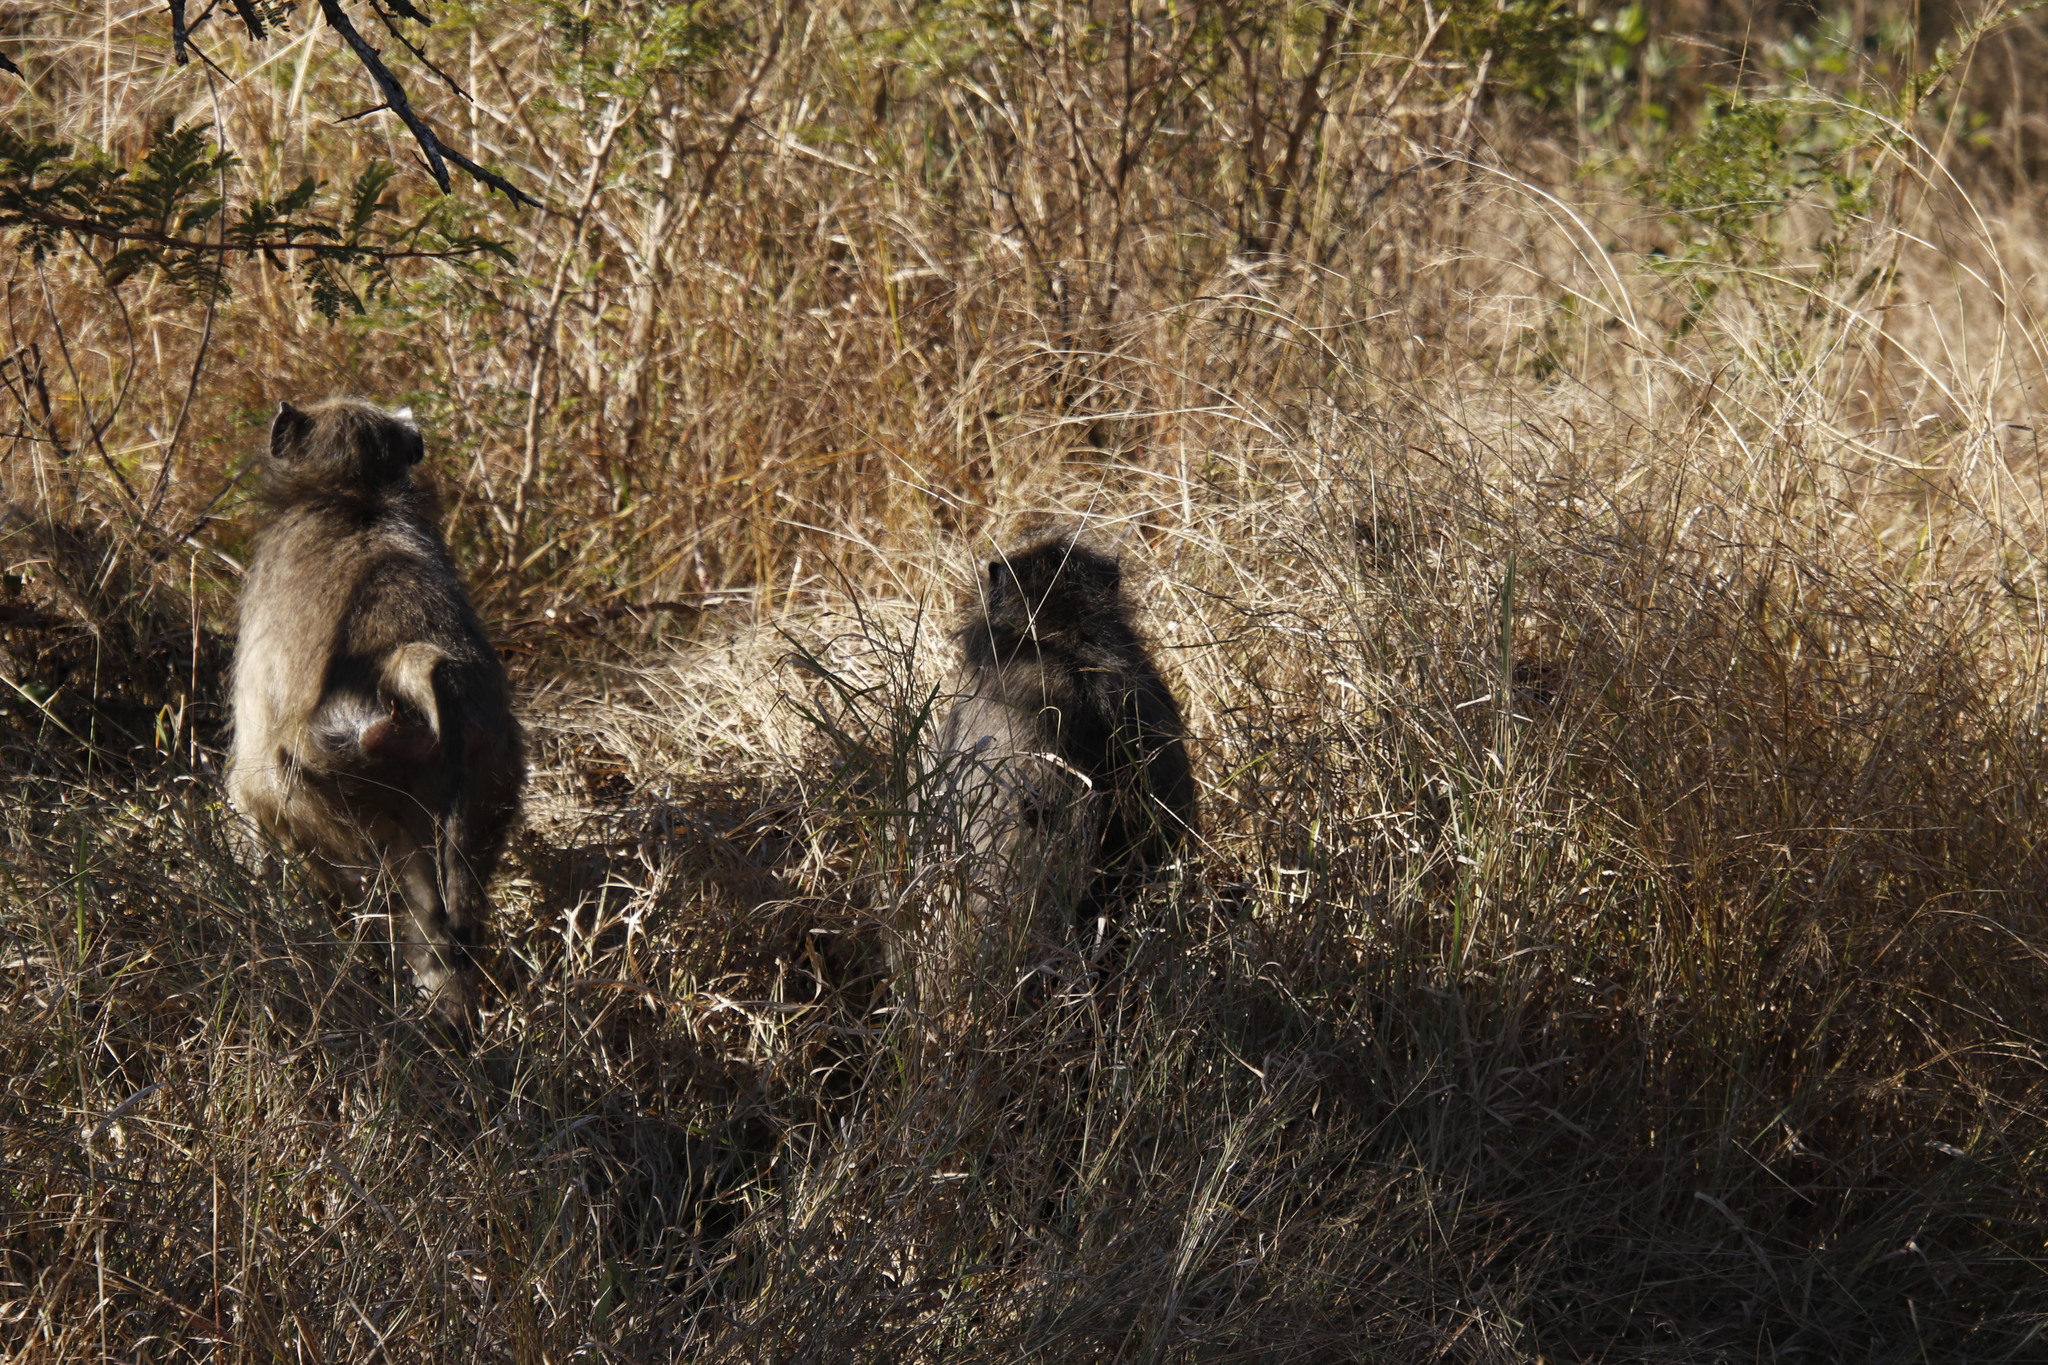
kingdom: Animalia
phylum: Chordata
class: Mammalia
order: Primates
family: Cercopithecidae
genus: Papio
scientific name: Papio ursinus
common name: Chacma baboon
